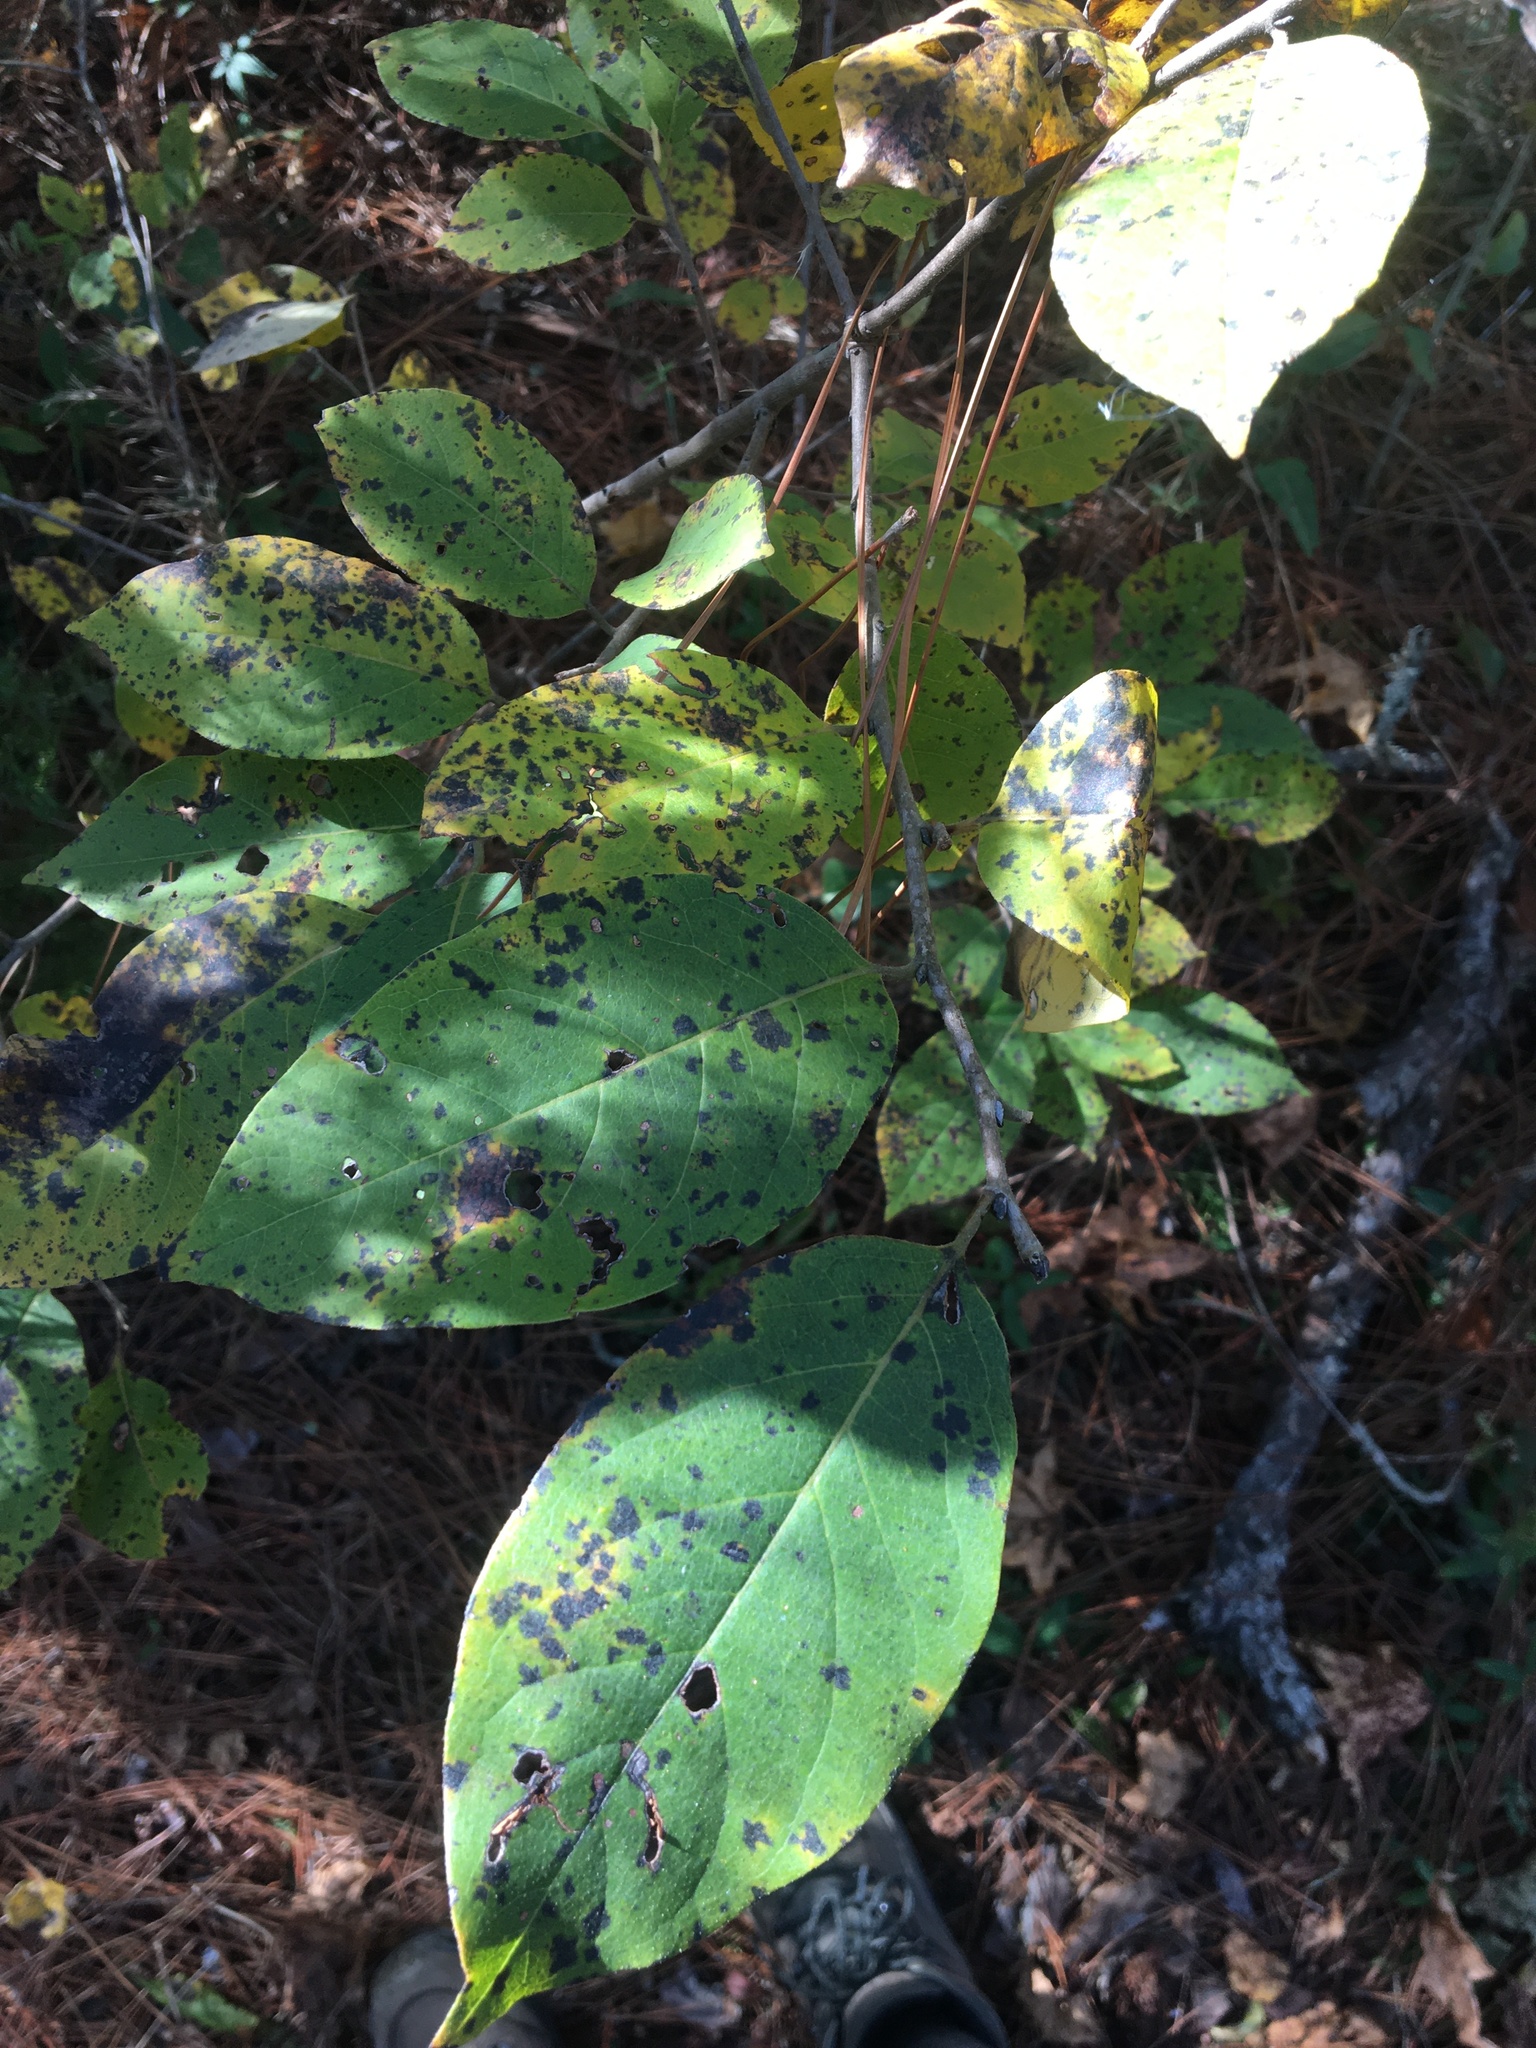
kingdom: Plantae
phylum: Tracheophyta
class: Magnoliopsida
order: Ericales
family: Ebenaceae
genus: Diospyros
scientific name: Diospyros virginiana
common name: Persimmon
